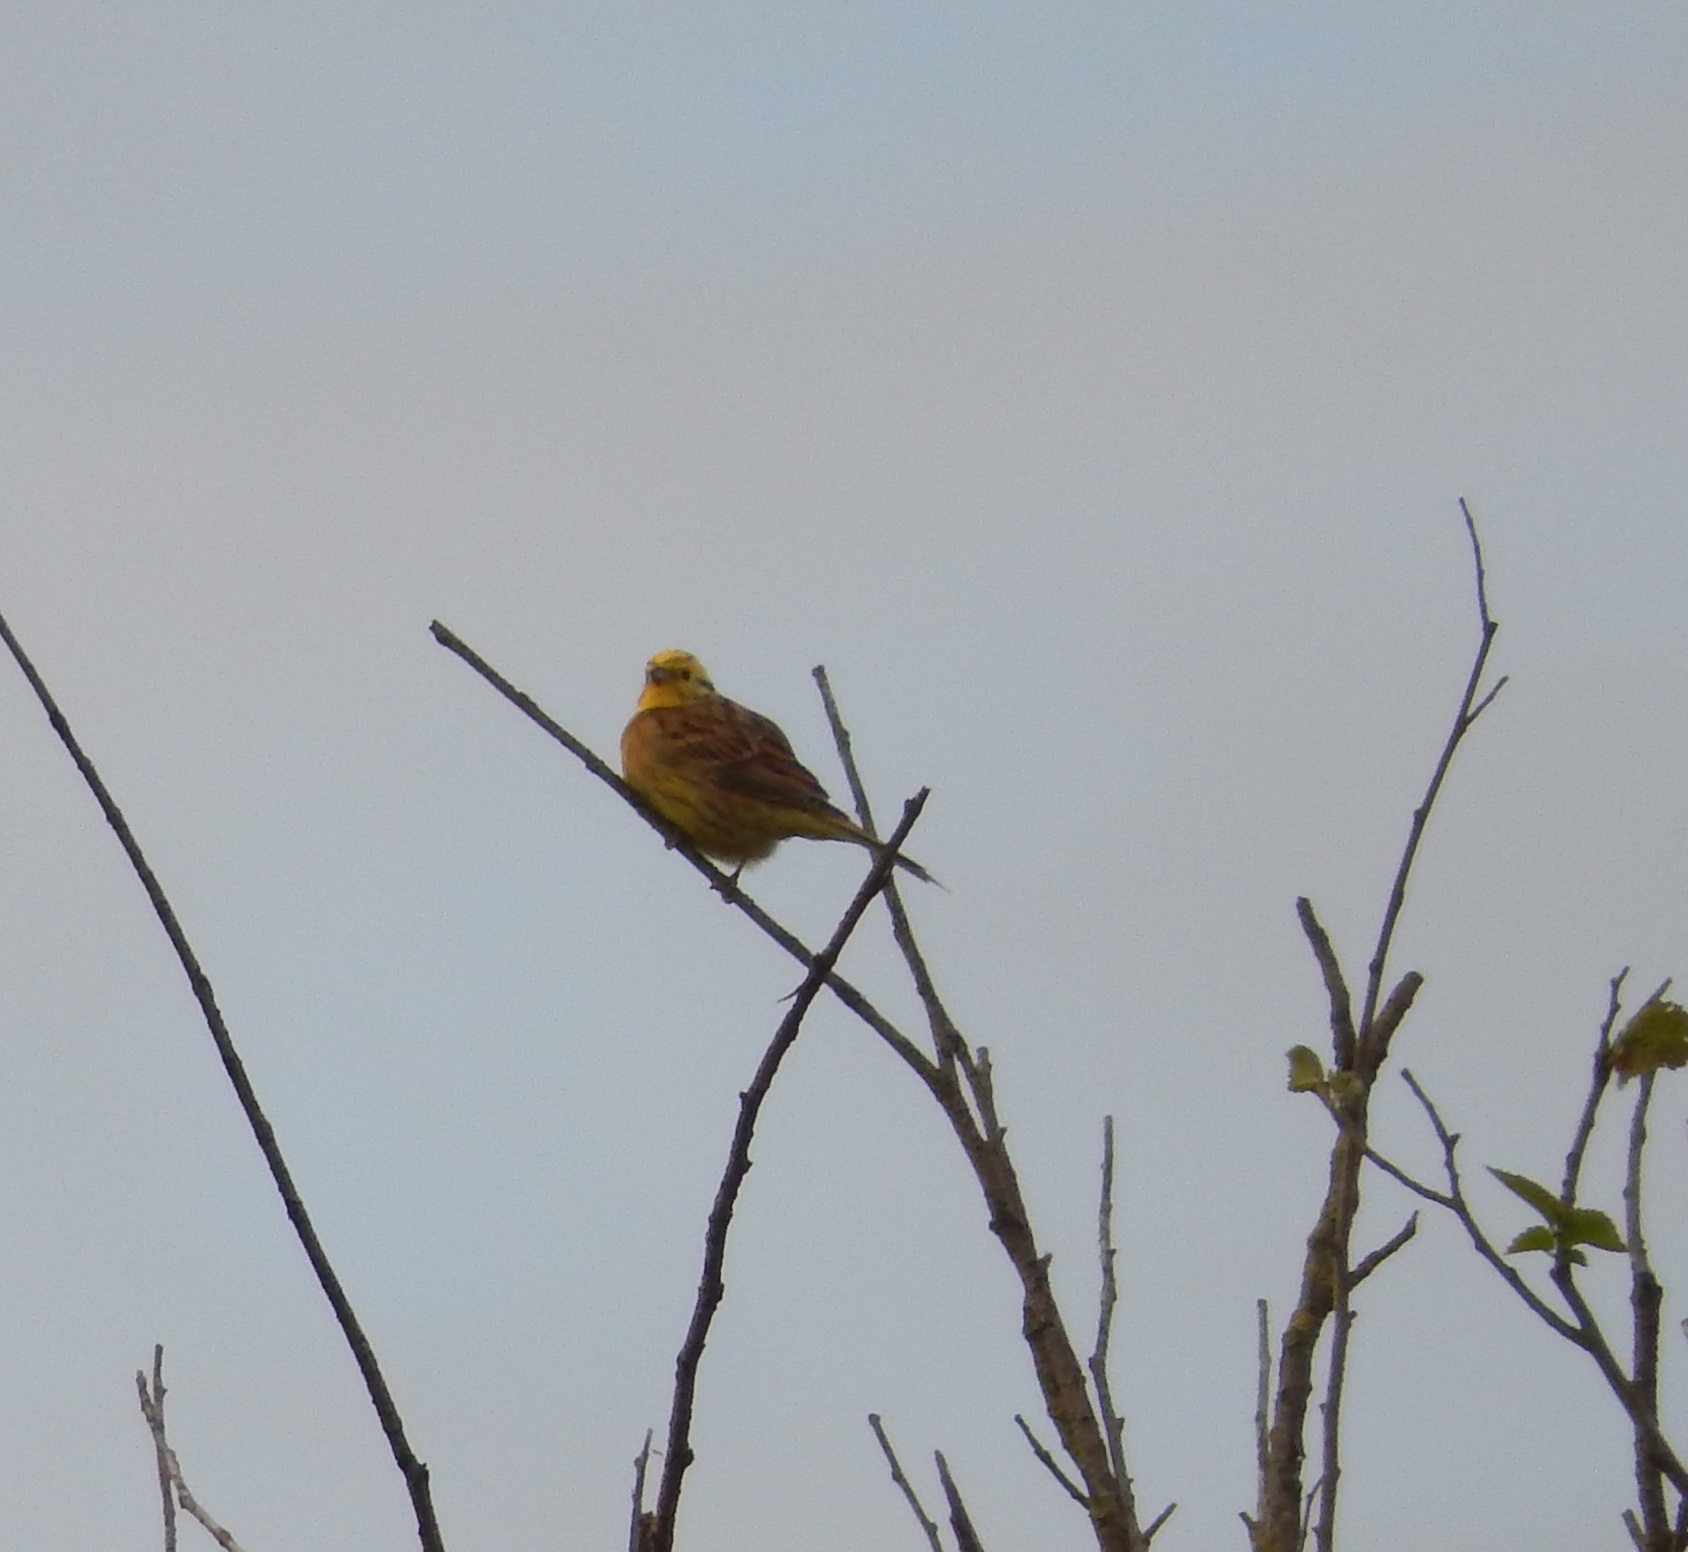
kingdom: Animalia
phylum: Chordata
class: Aves
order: Passeriformes
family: Emberizidae
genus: Emberiza
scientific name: Emberiza citrinella
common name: Yellowhammer
